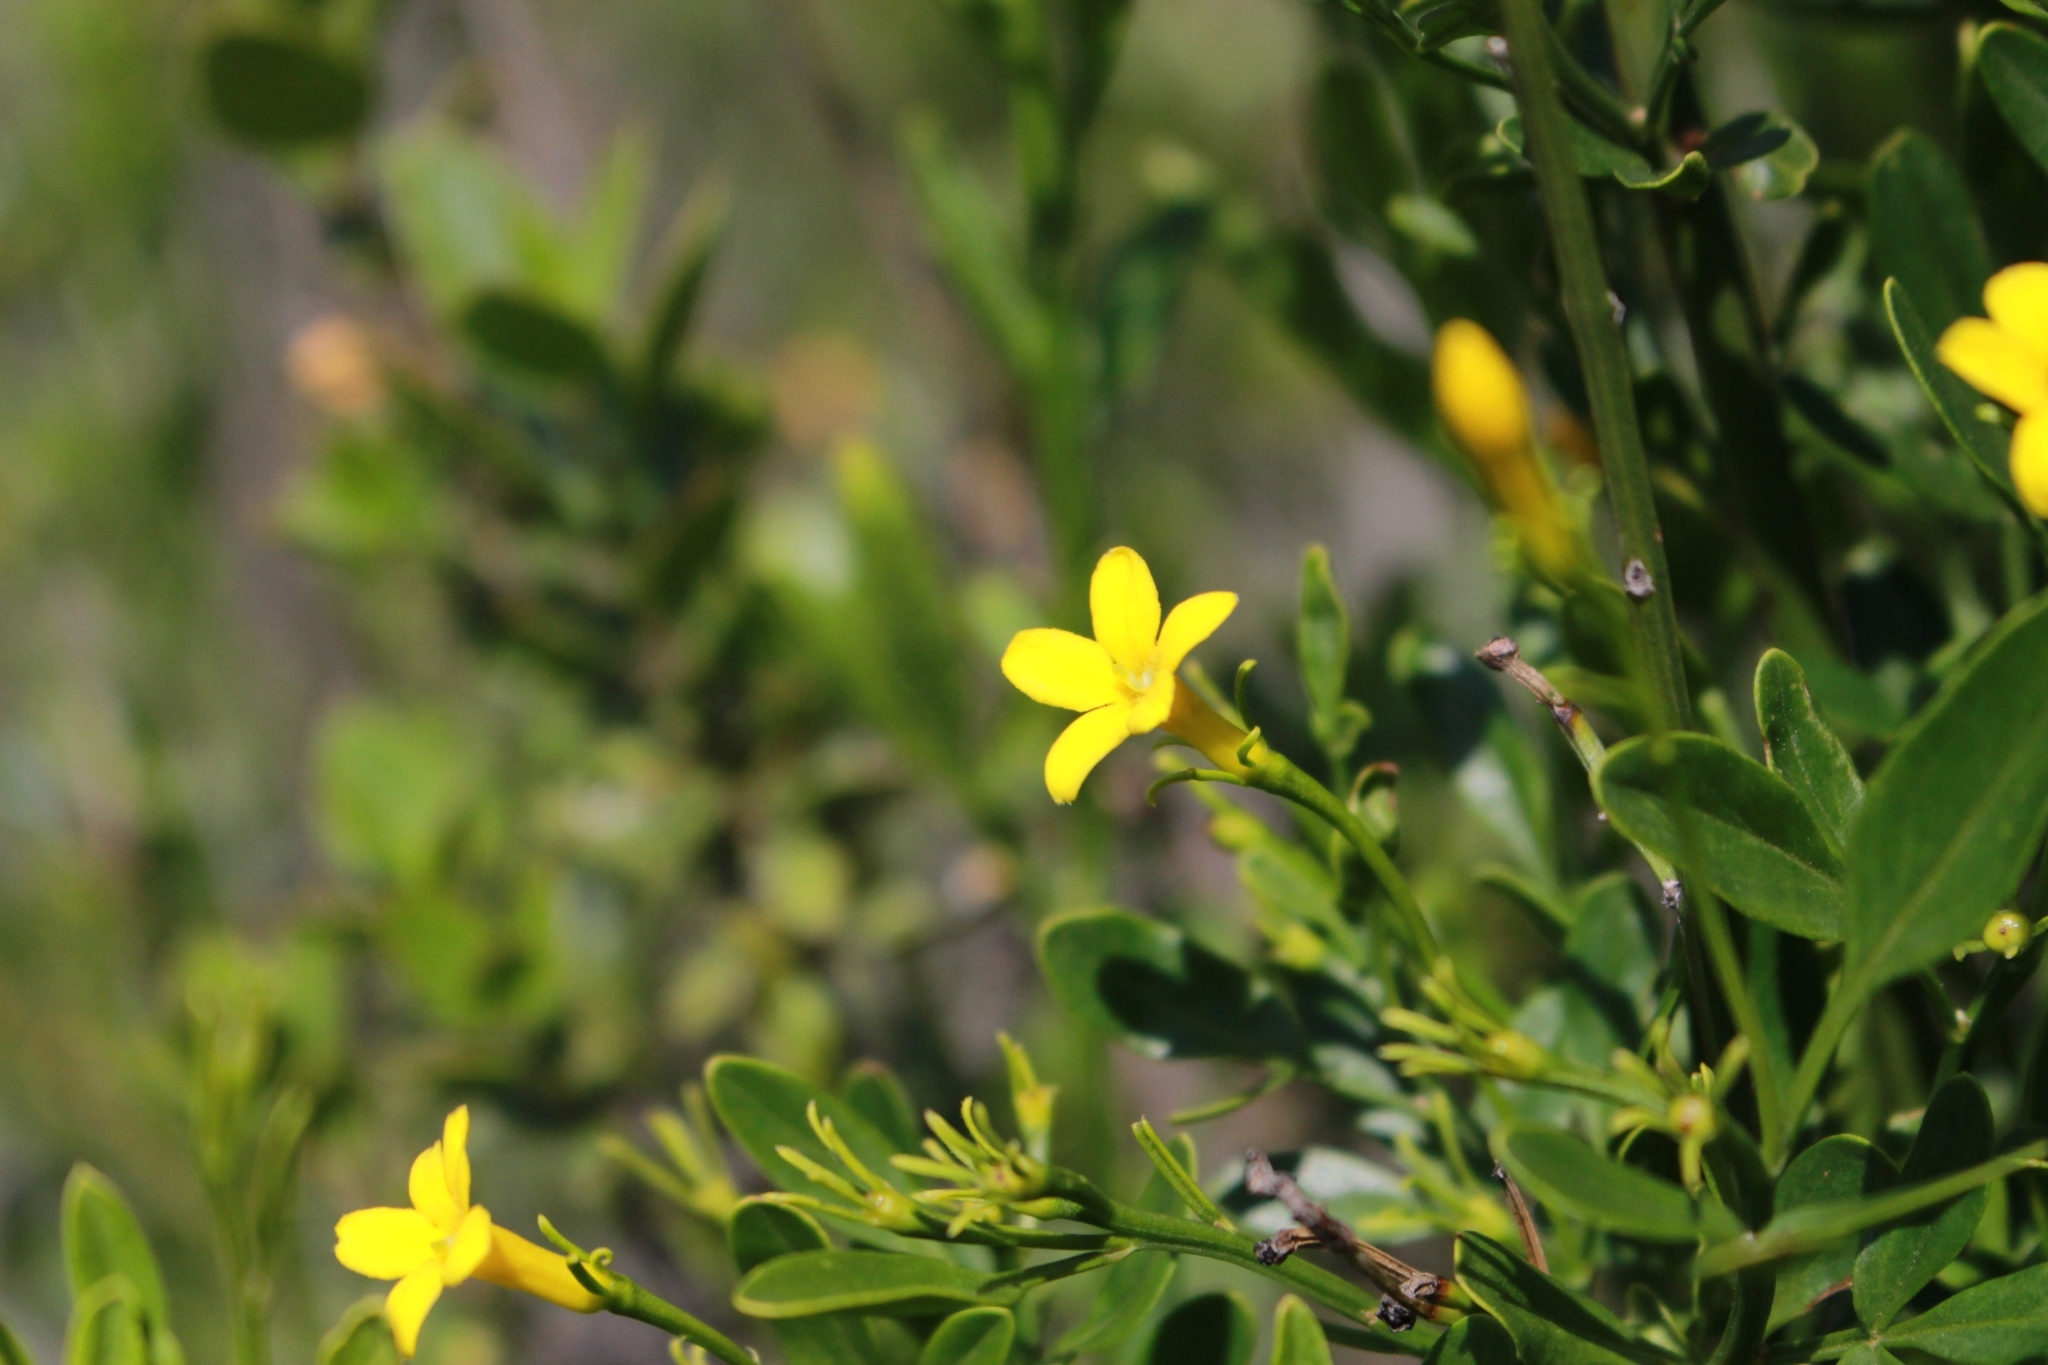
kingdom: Plantae
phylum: Tracheophyta
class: Magnoliopsida
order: Lamiales
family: Oleaceae
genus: Chrysojasminum
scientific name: Chrysojasminum fruticans
